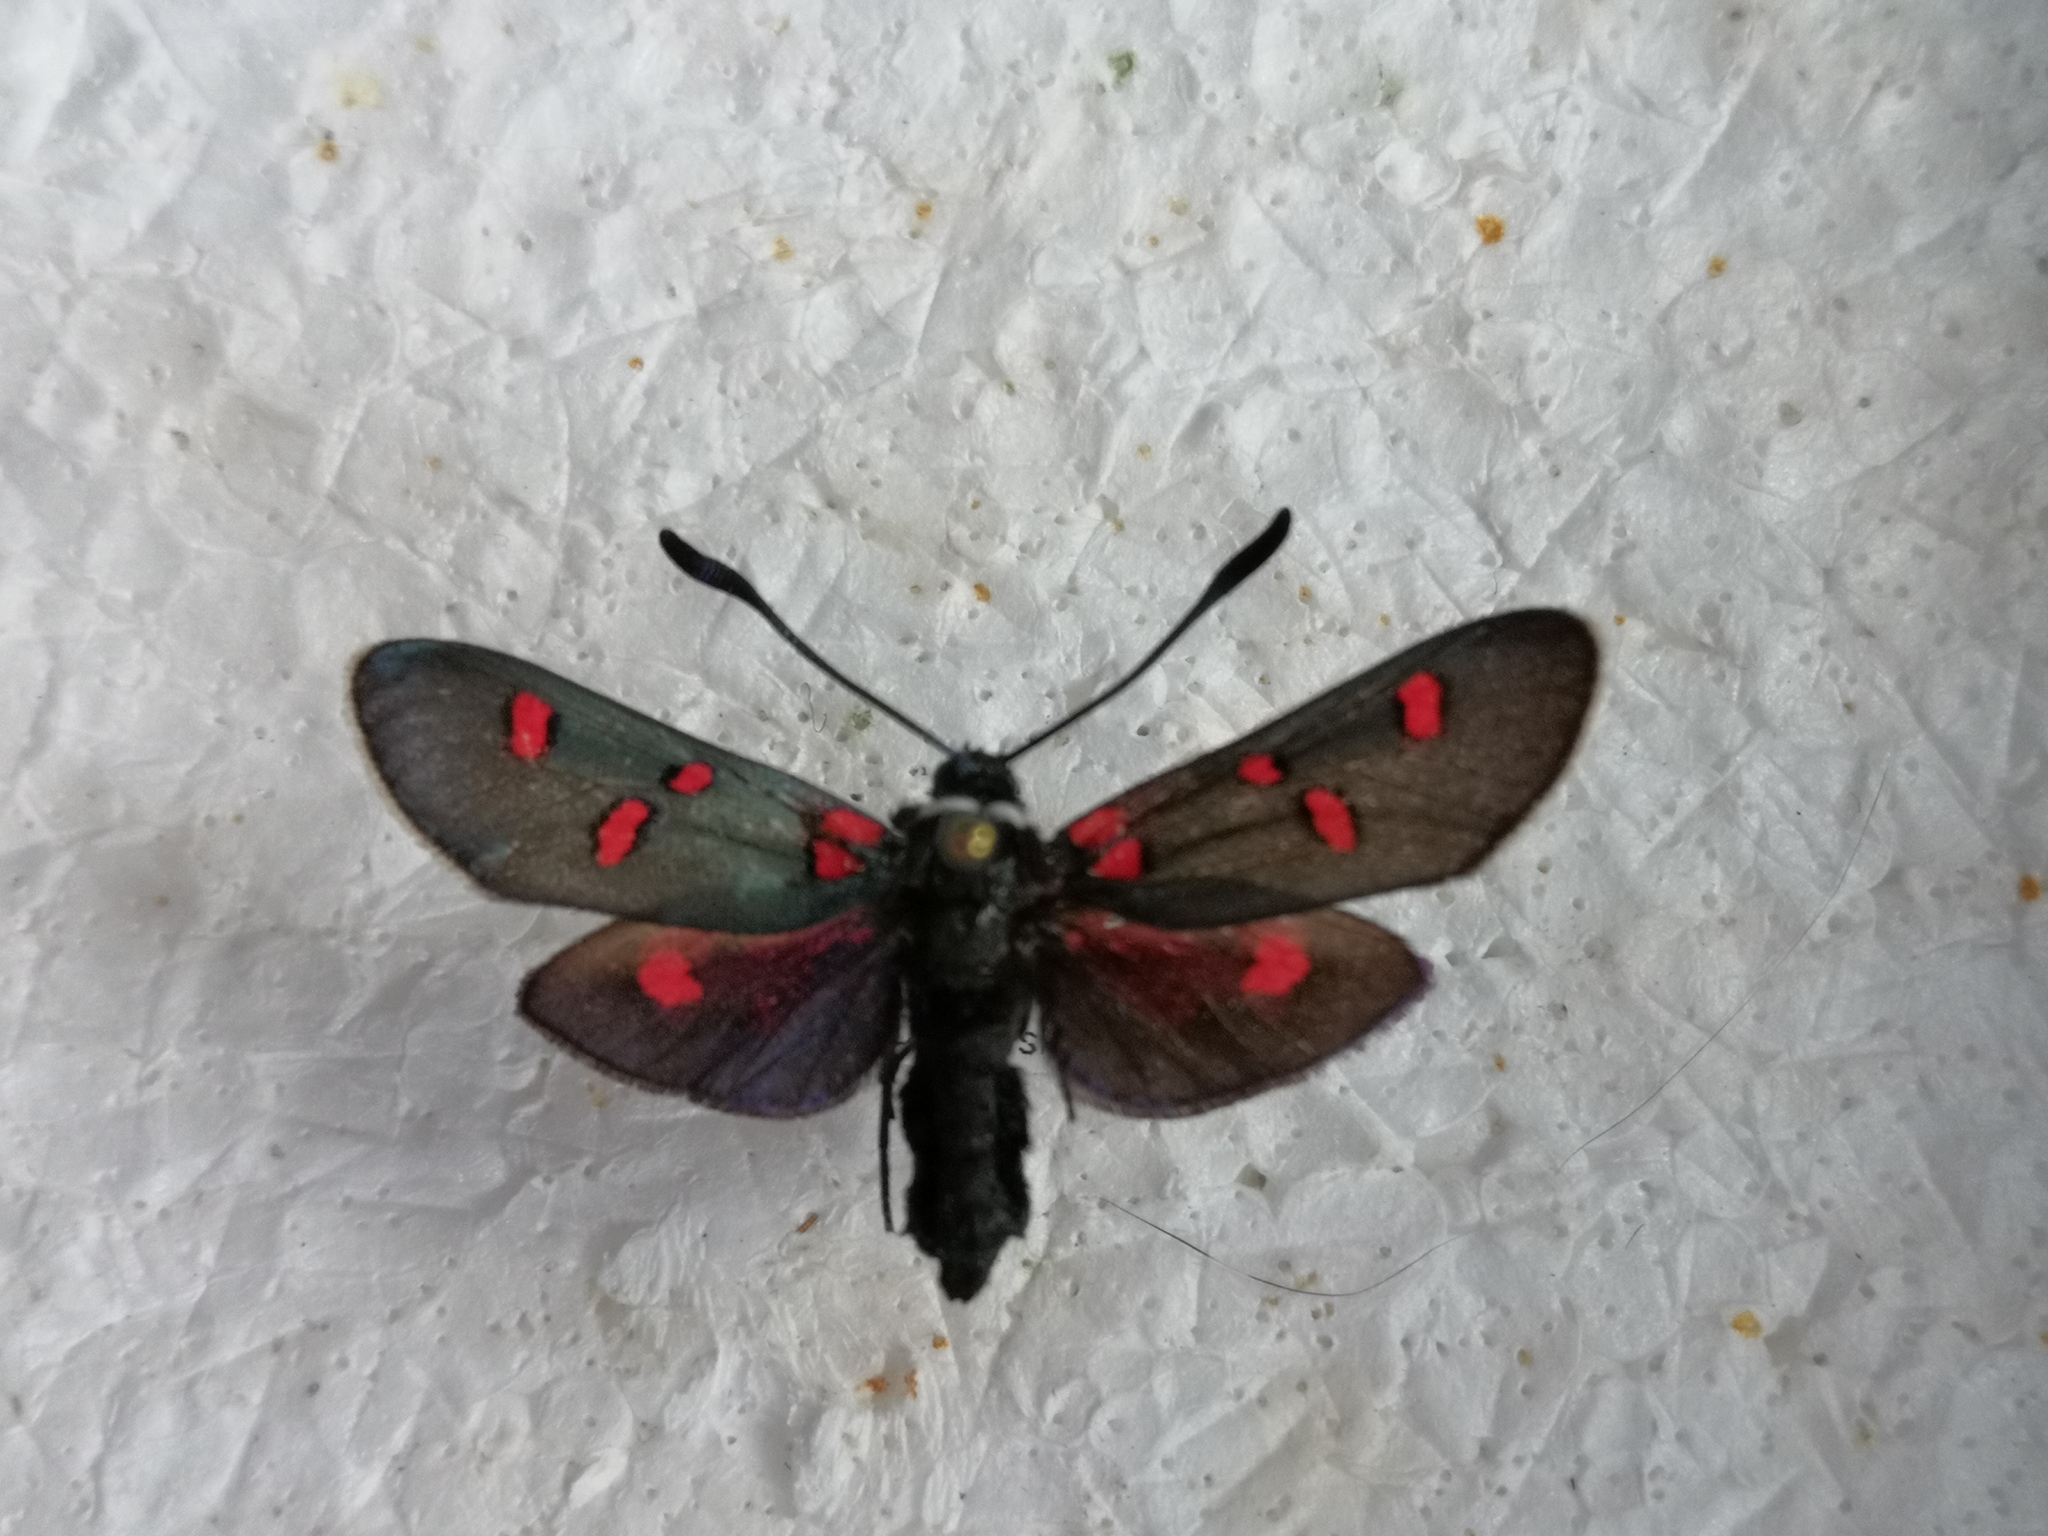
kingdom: Animalia
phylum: Arthropoda
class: Insecta
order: Lepidoptera
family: Zygaenidae
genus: Zygaena
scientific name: Zygaena lavandulae
